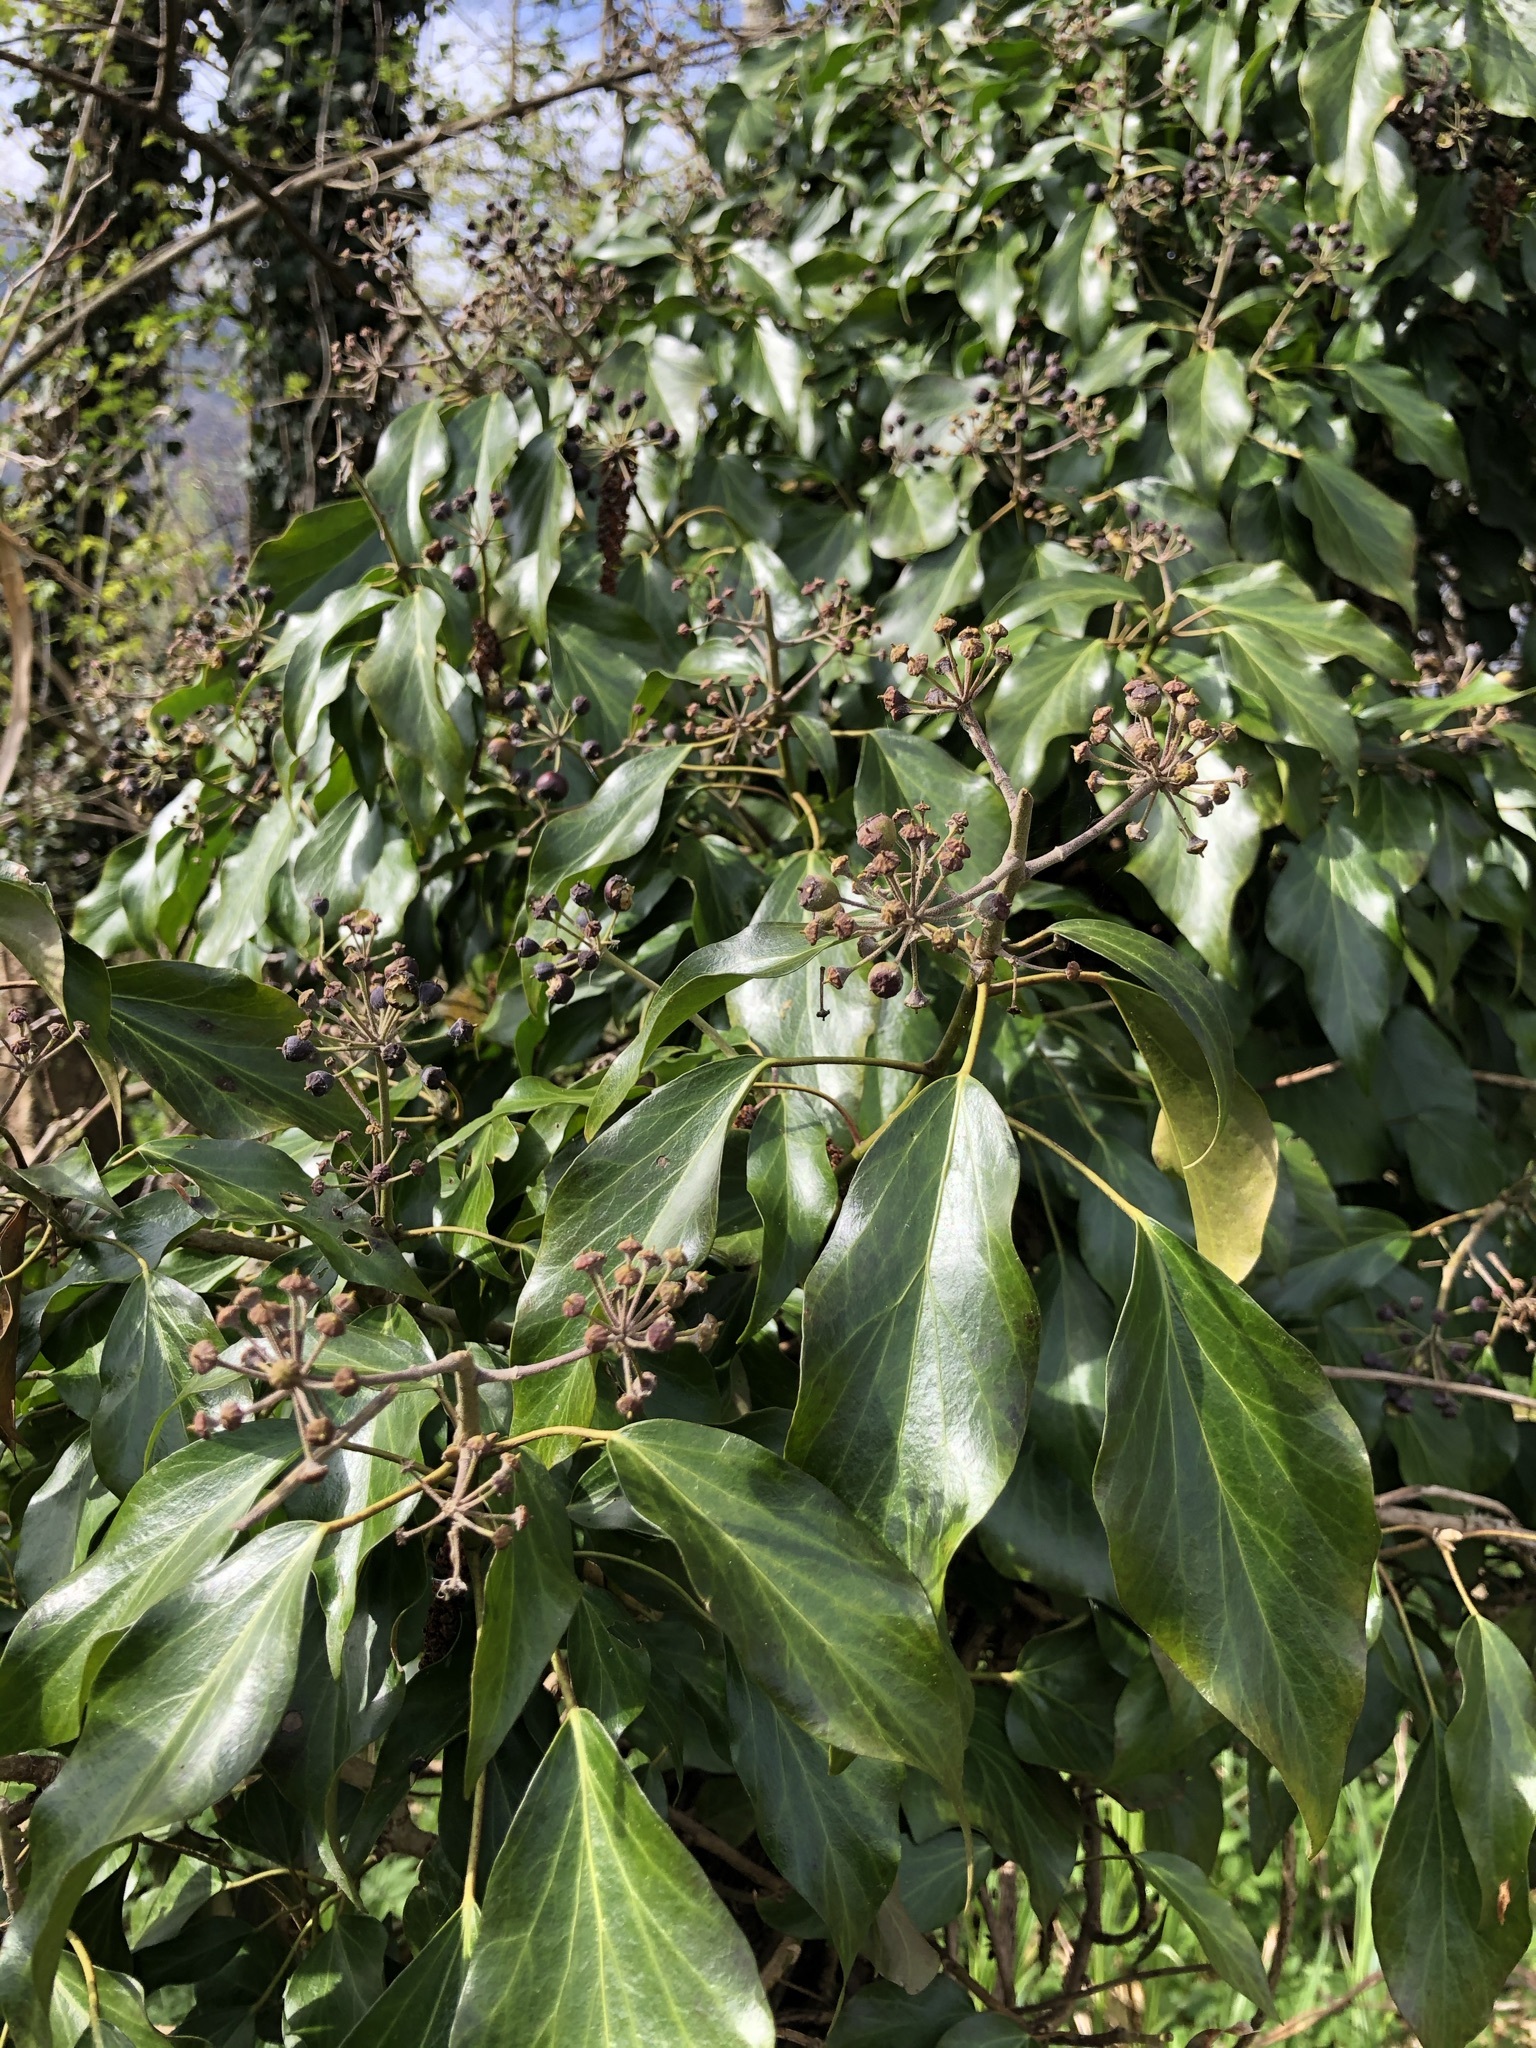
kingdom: Plantae
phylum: Tracheophyta
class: Magnoliopsida
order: Apiales
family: Araliaceae
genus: Hedera
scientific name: Hedera helix
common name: Ivy
